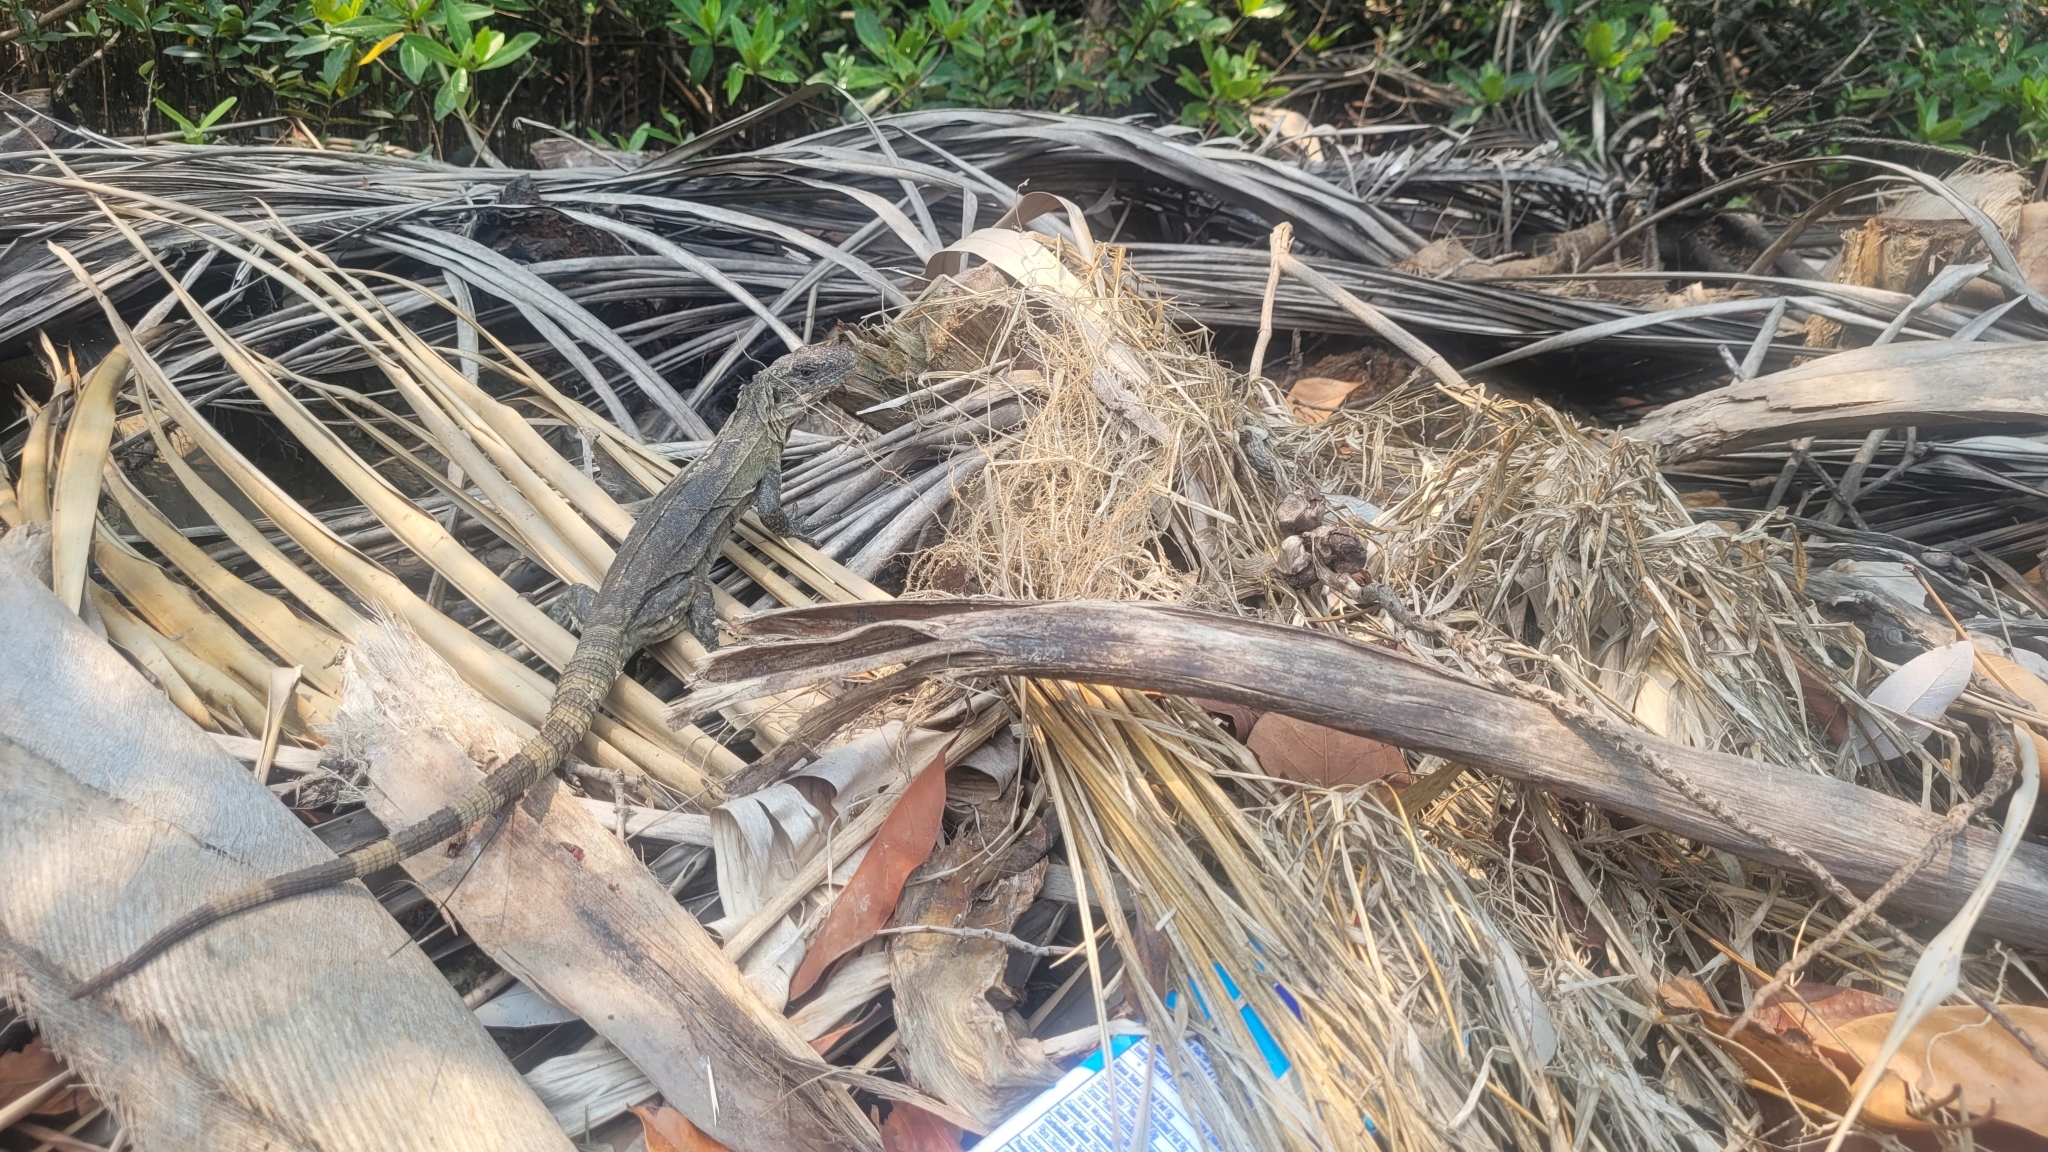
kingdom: Animalia
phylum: Chordata
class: Squamata
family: Iguanidae
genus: Ctenosaura
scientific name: Ctenosaura bakeri
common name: Utila spiny-tailed iguana
